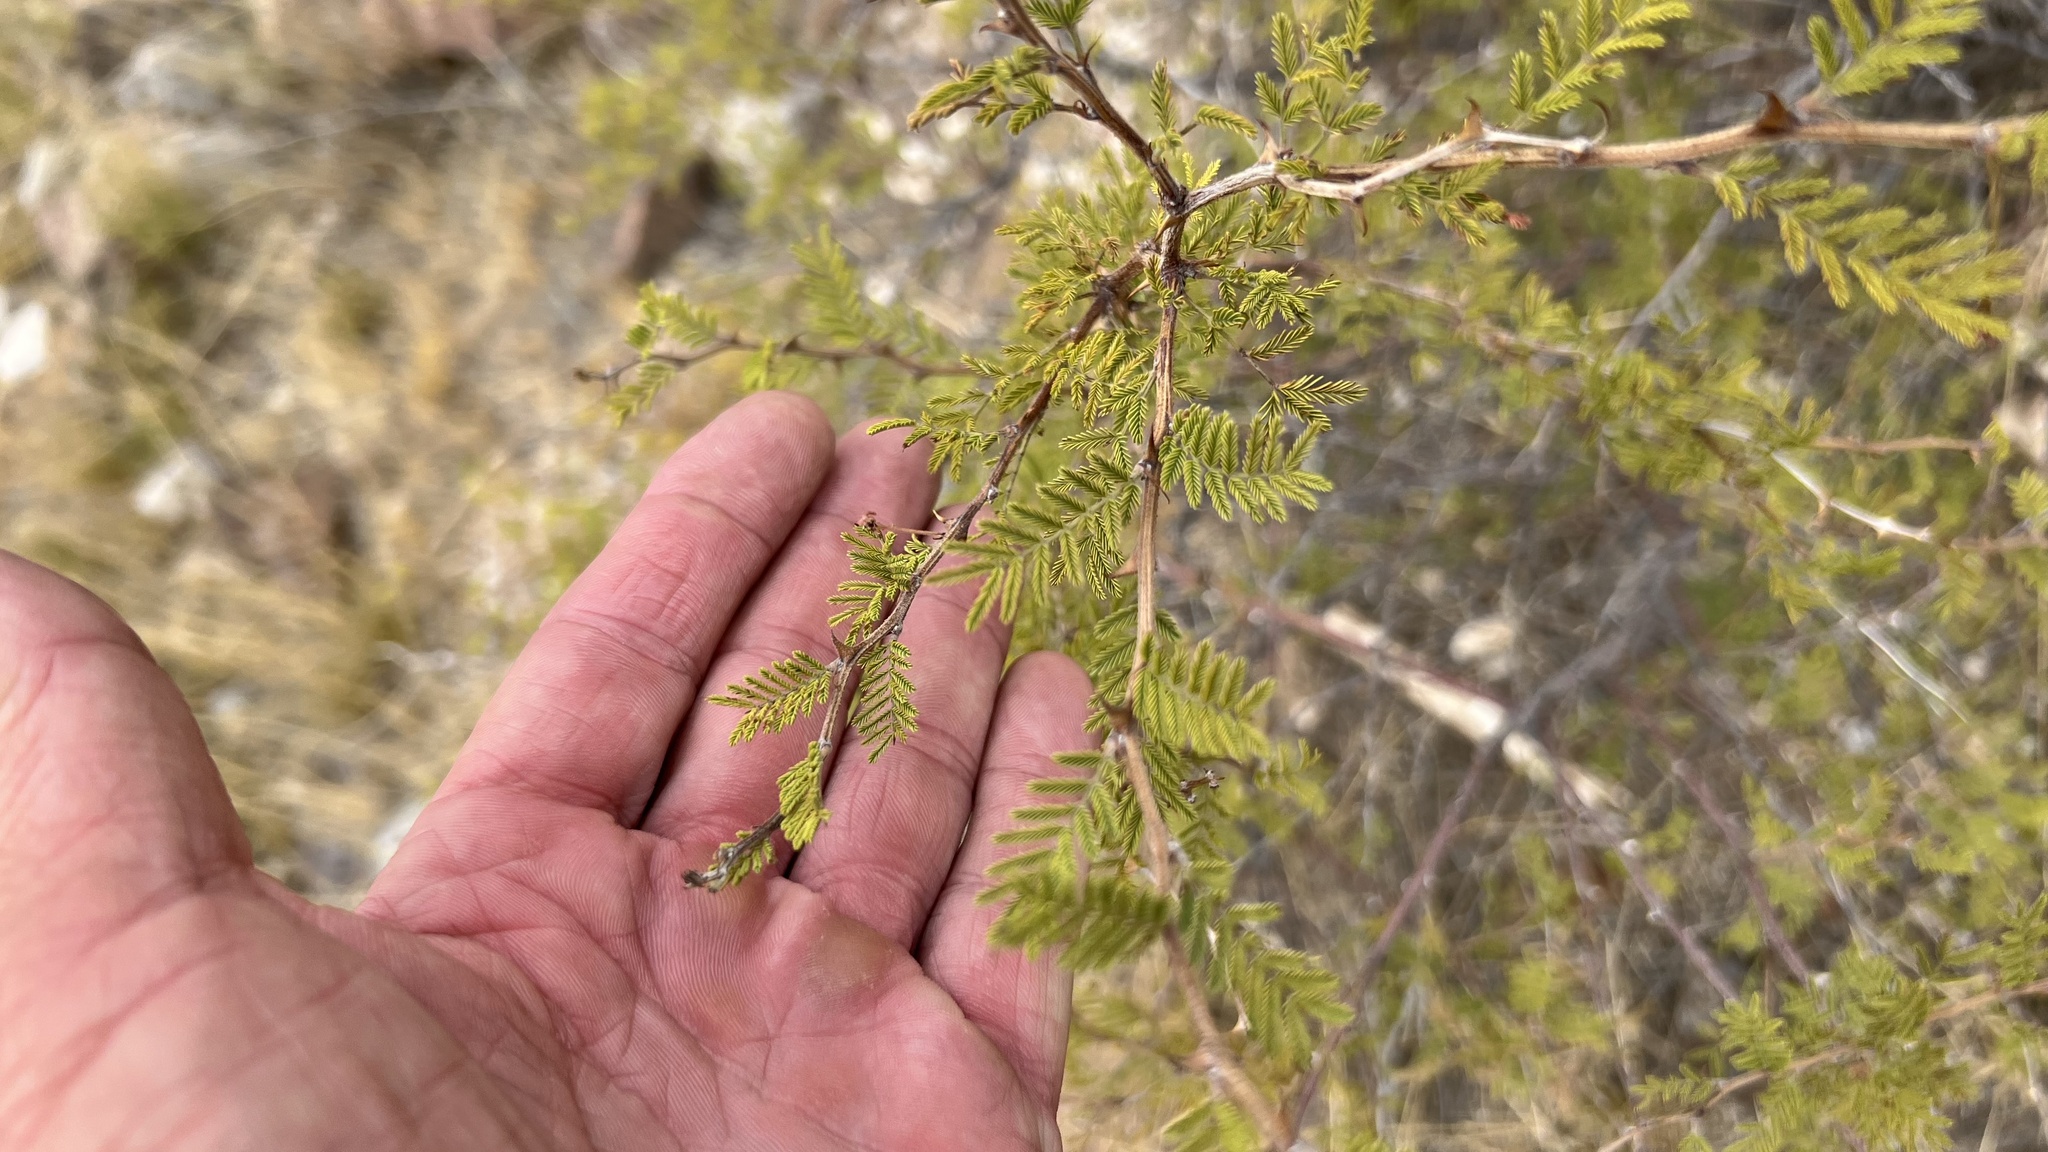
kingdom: Plantae
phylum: Tracheophyta
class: Magnoliopsida
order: Fabales
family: Fabaceae
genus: Mimosa
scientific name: Mimosa aculeaticarpa
